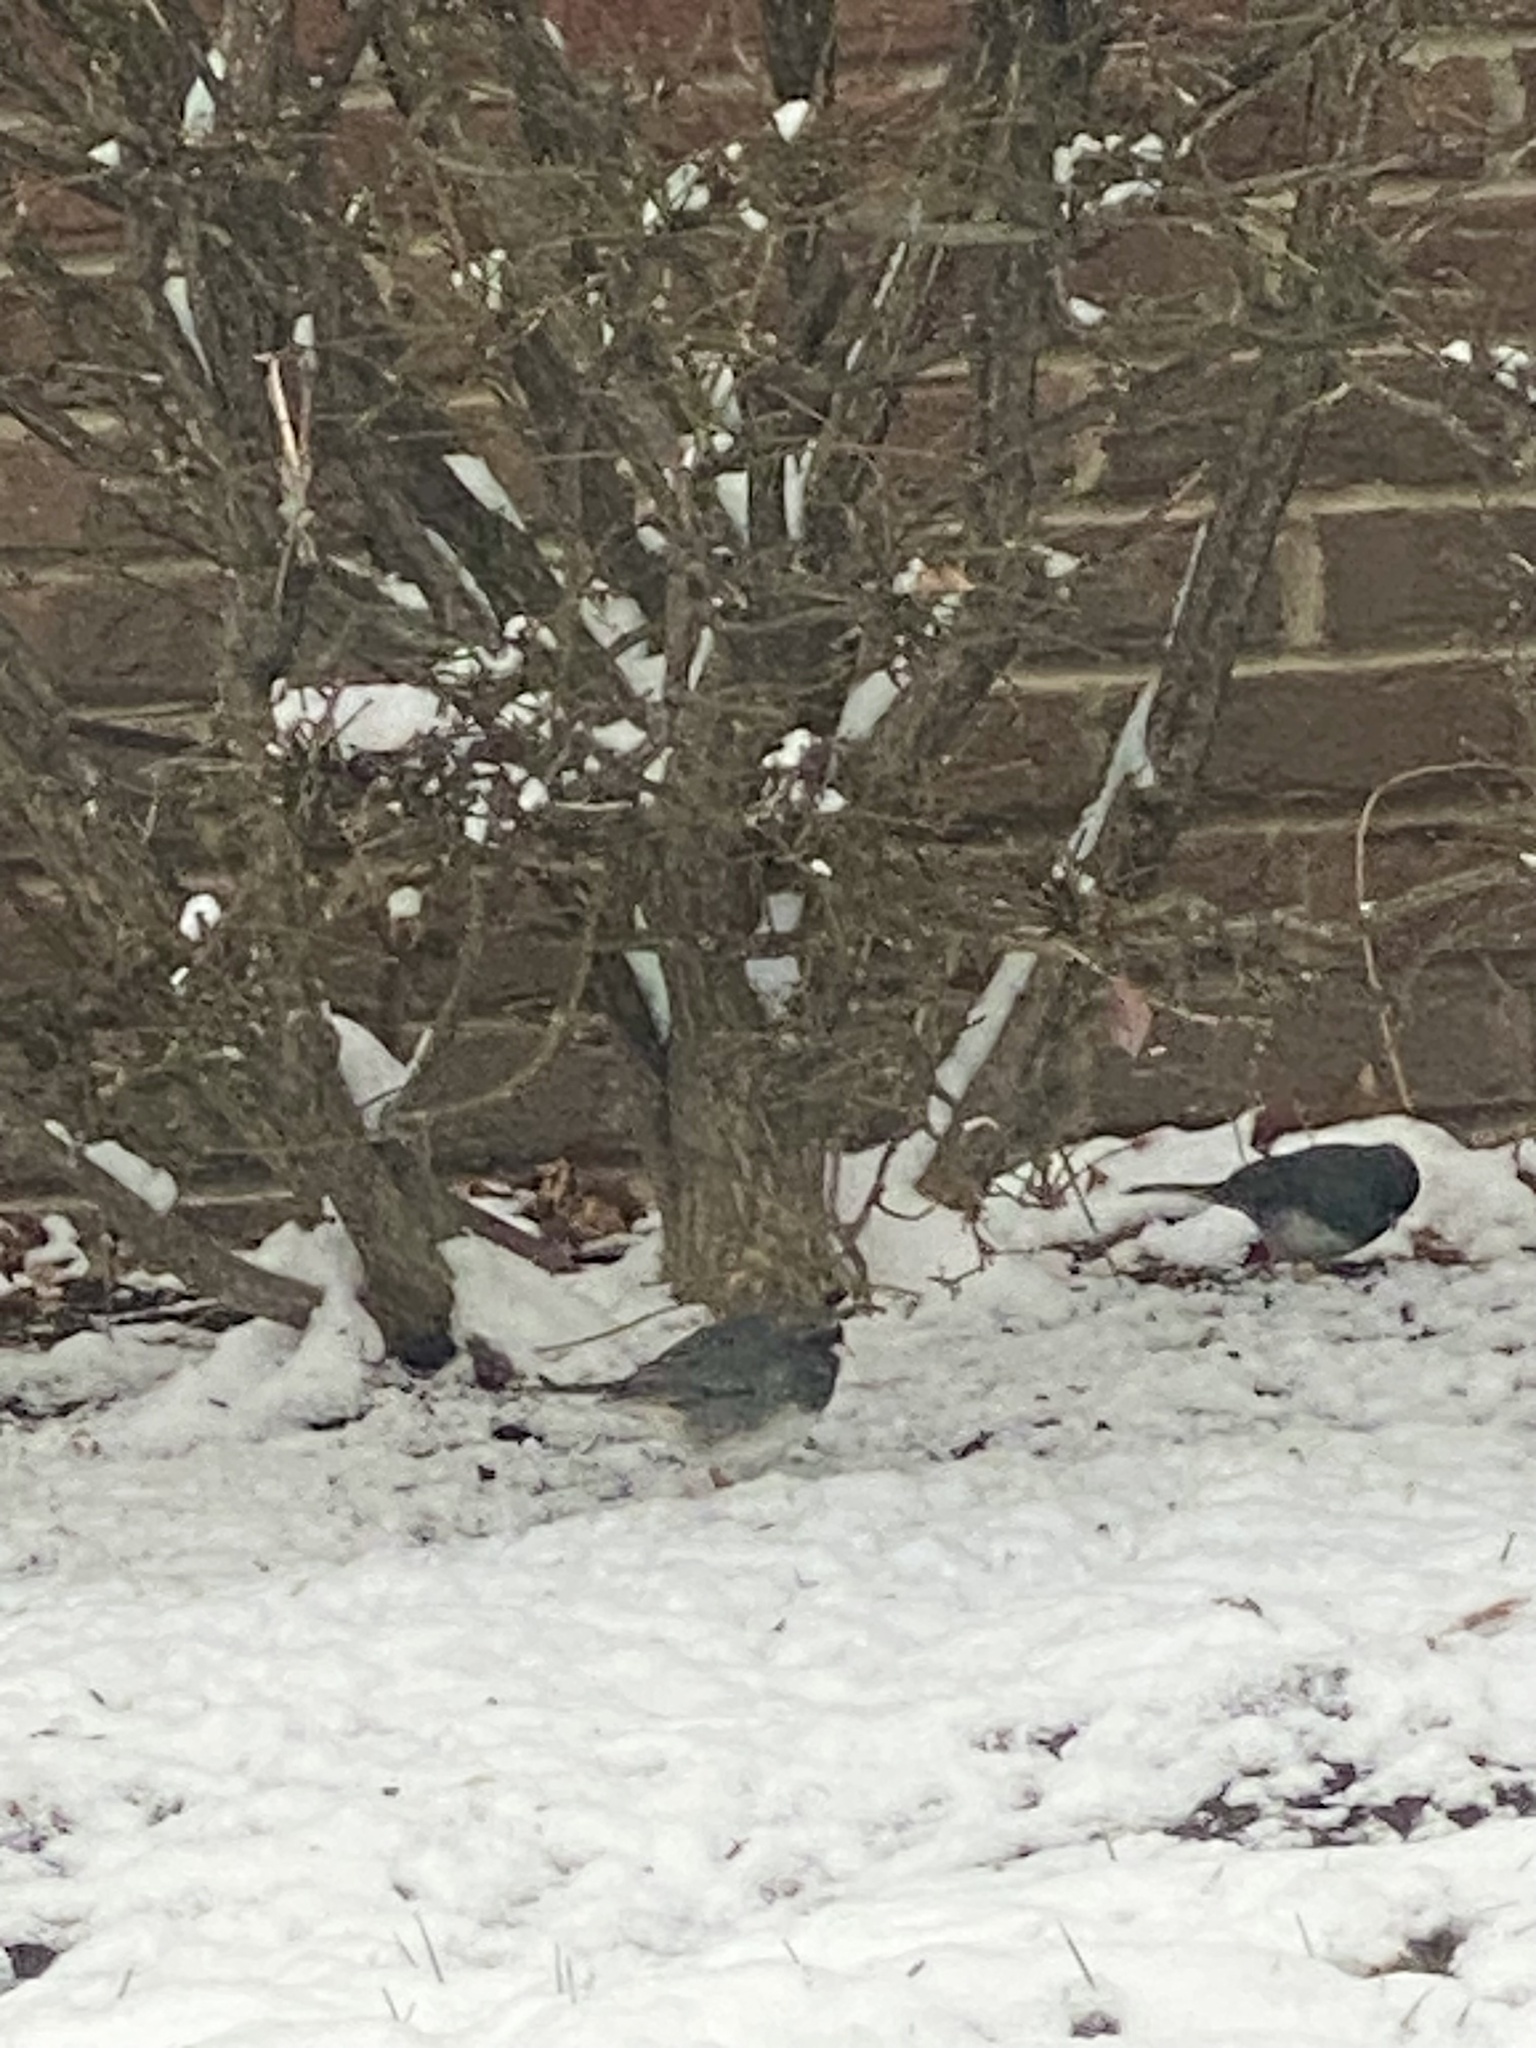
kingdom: Animalia
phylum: Chordata
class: Aves
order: Passeriformes
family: Passerellidae
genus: Junco
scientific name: Junco hyemalis
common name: Dark-eyed junco
